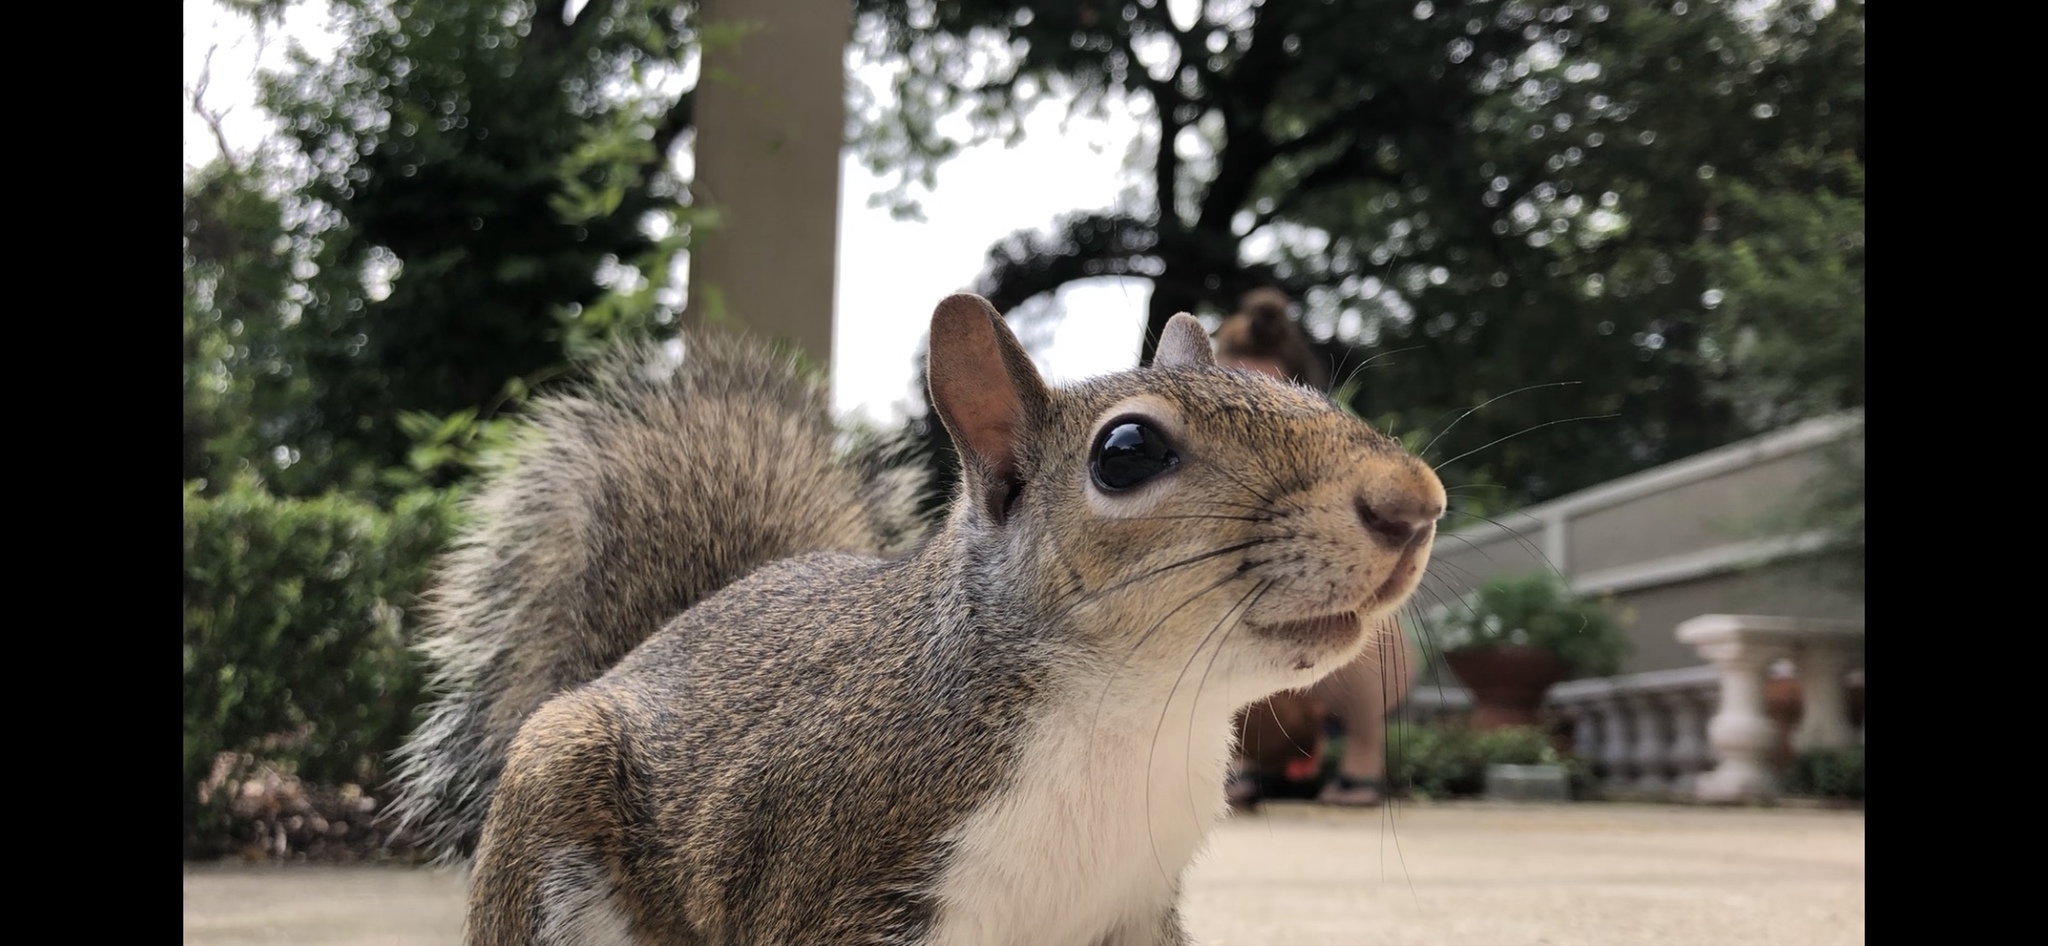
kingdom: Animalia
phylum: Chordata
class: Mammalia
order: Rodentia
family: Sciuridae
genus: Sciurus
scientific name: Sciurus carolinensis
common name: Eastern gray squirrel
